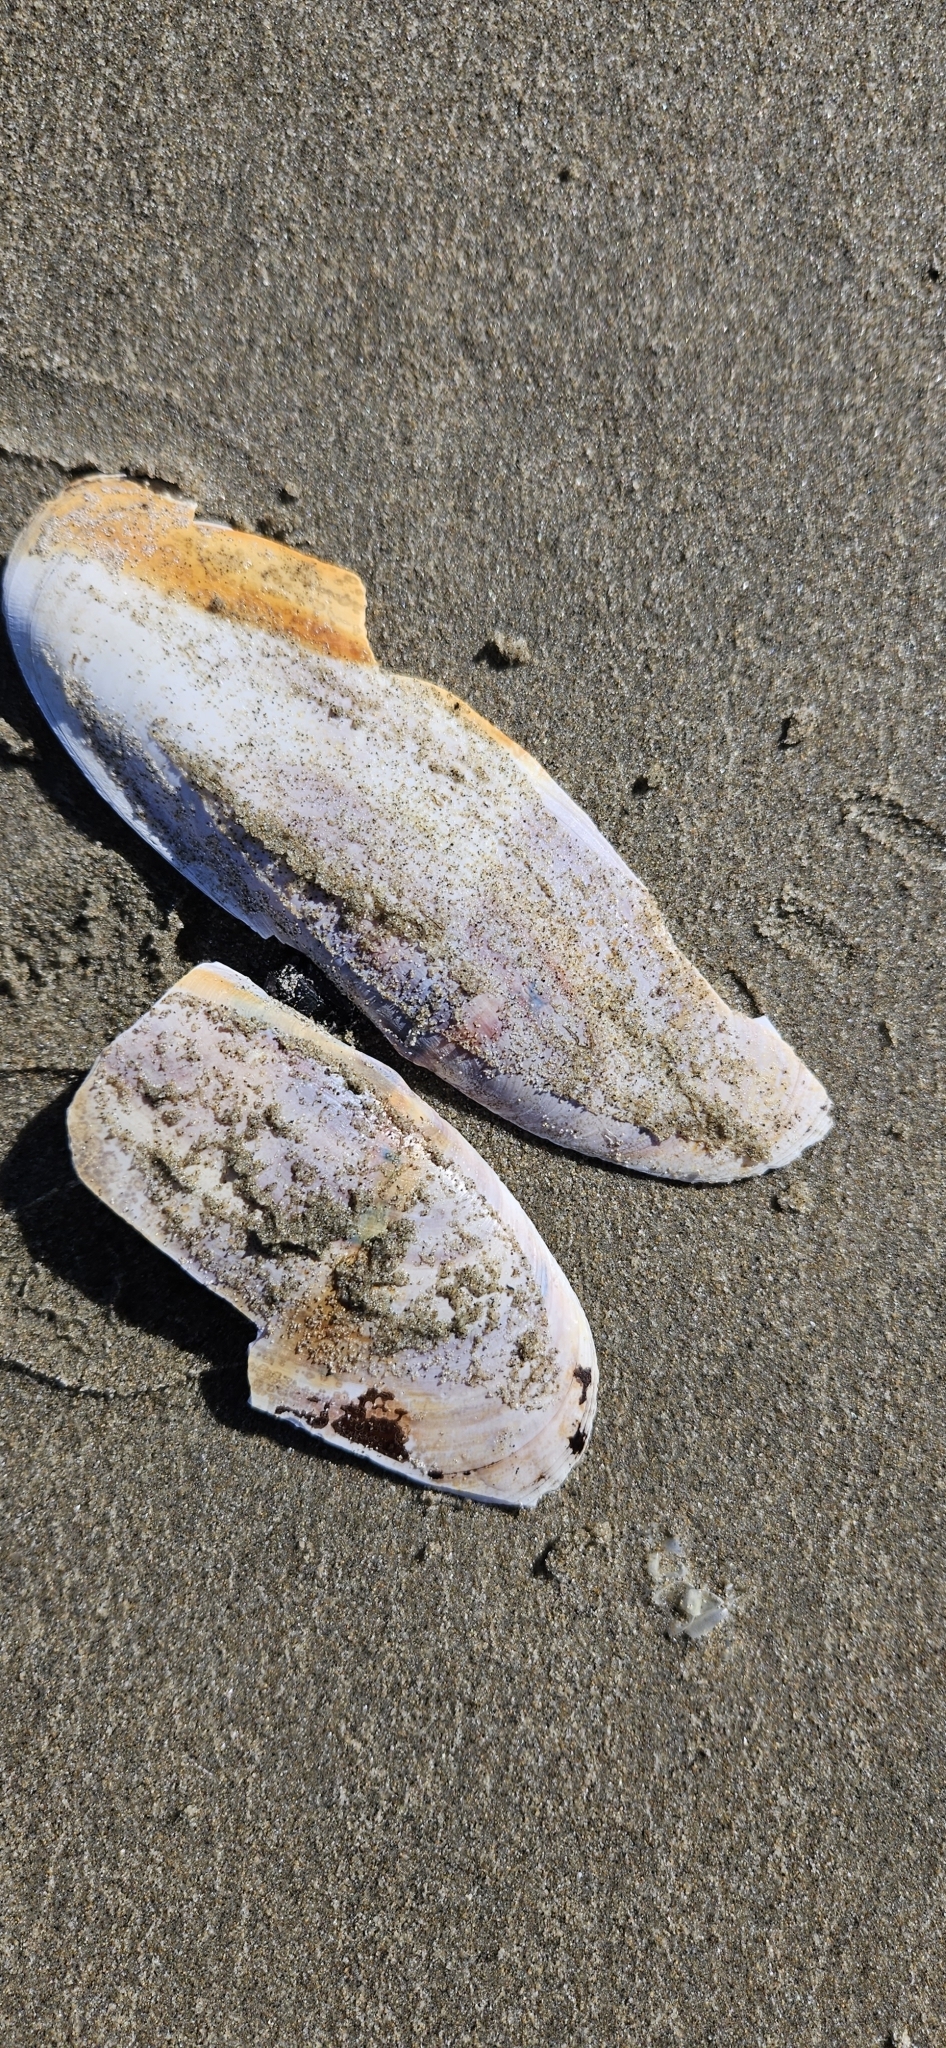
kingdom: Animalia
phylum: Mollusca
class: Bivalvia
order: Adapedonta
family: Pharidae
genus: Siliqua
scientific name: Siliqua patula
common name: Pacific razor clam
